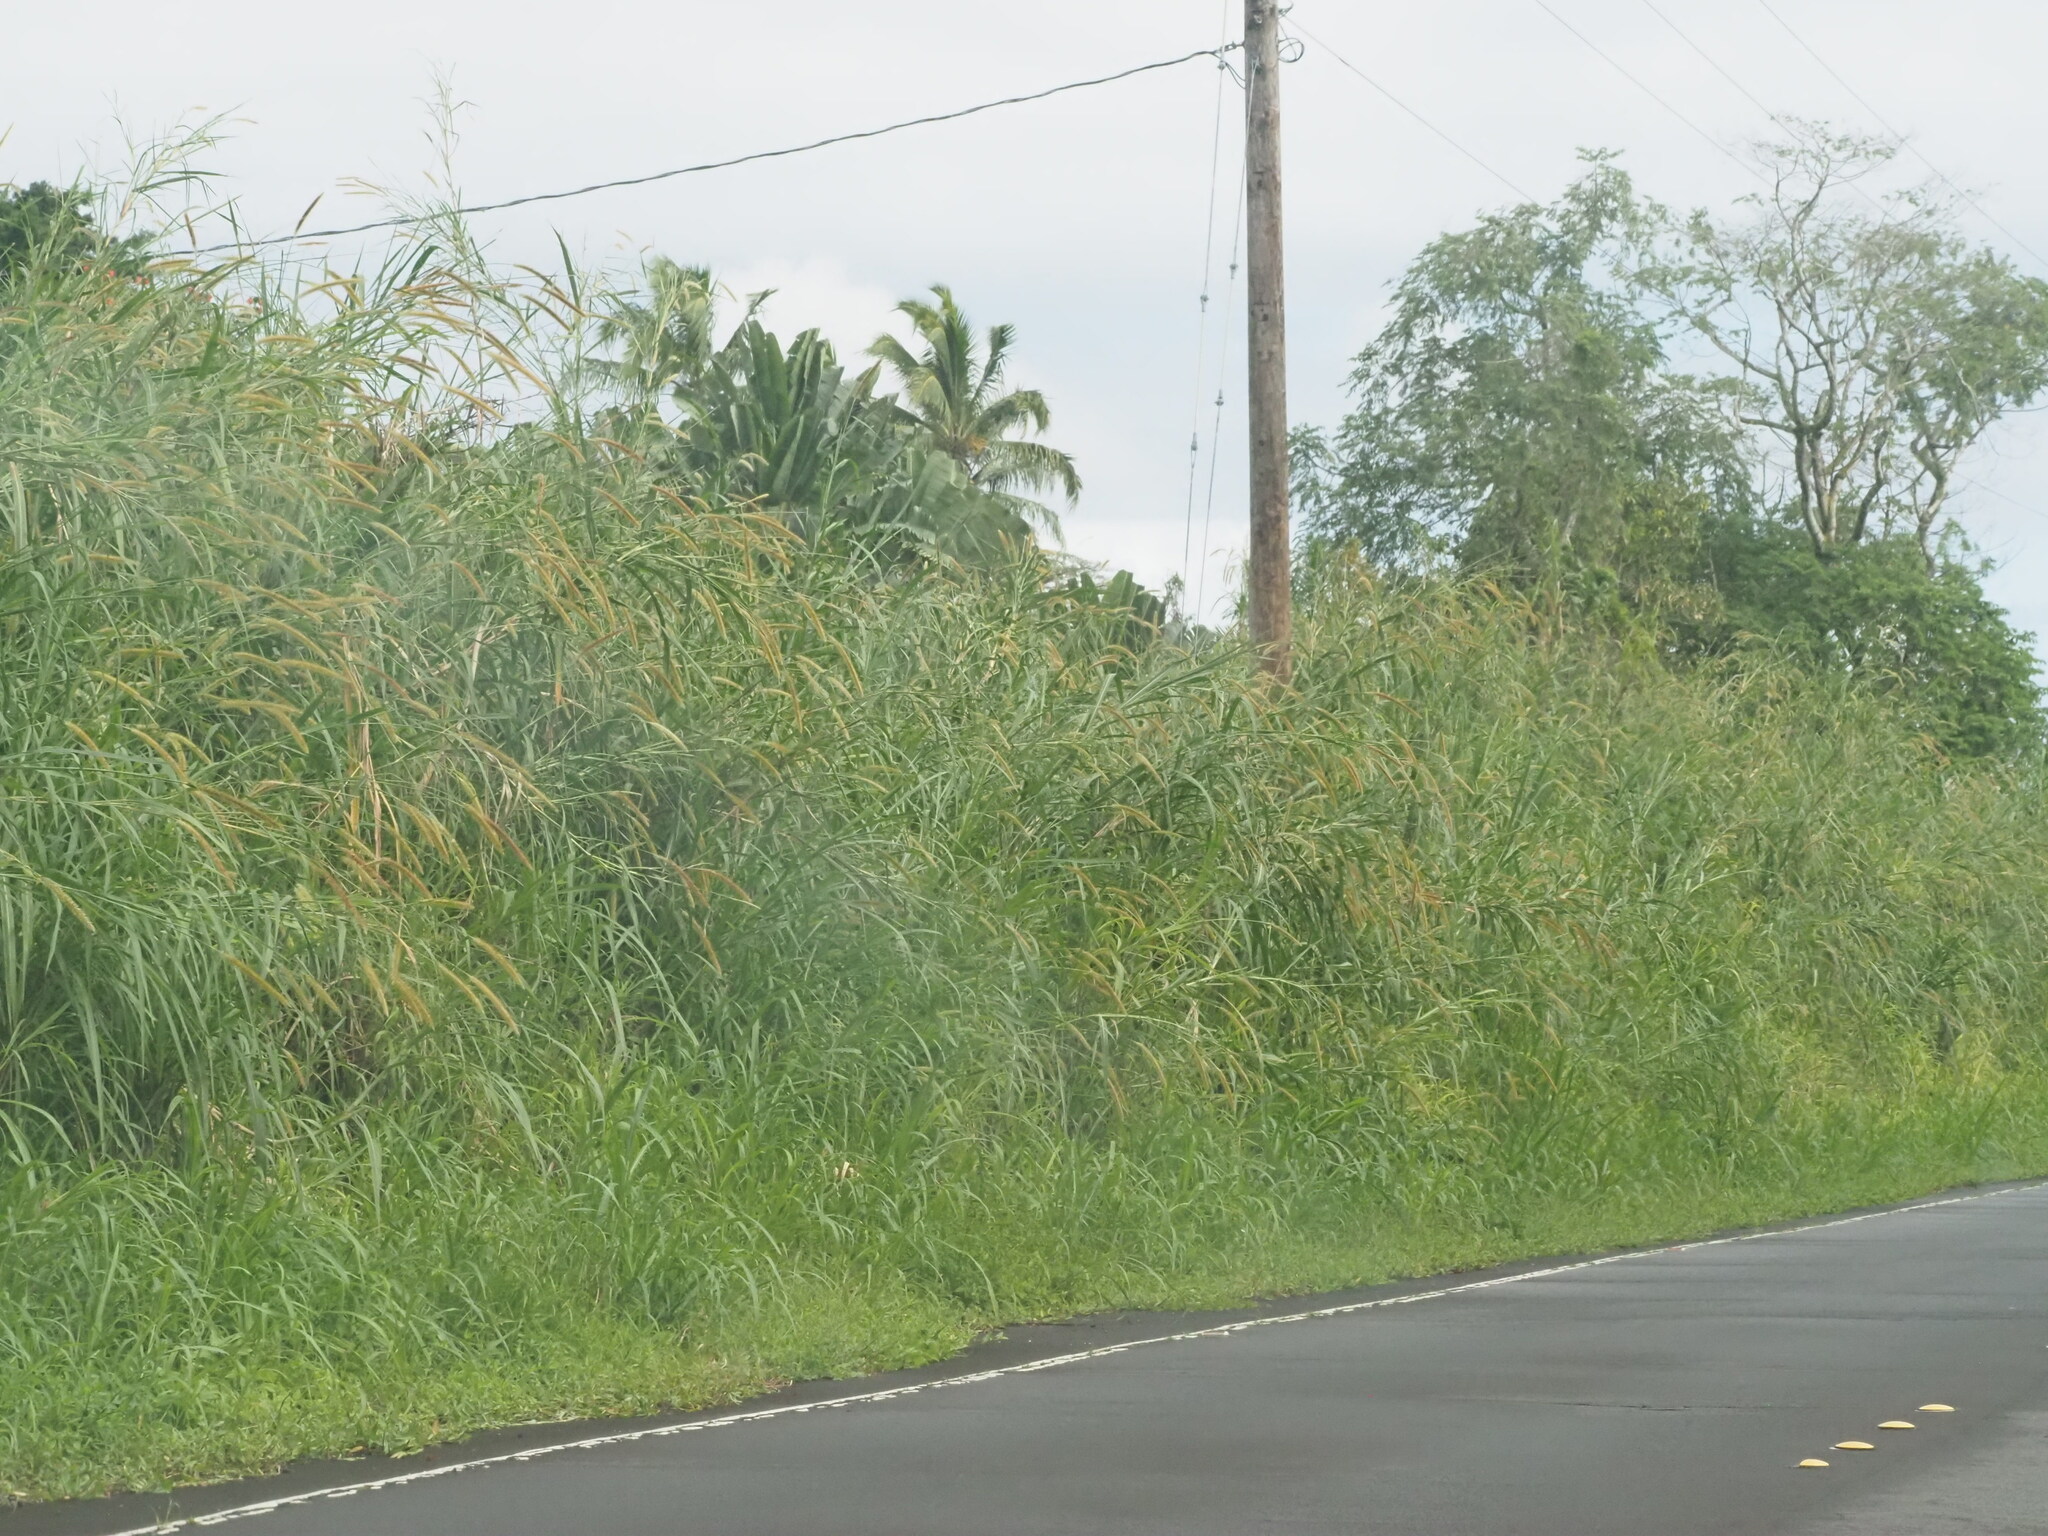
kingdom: Plantae
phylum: Tracheophyta
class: Liliopsida
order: Poales
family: Poaceae
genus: Cenchrus
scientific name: Cenchrus purpureus
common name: Elephant grass
